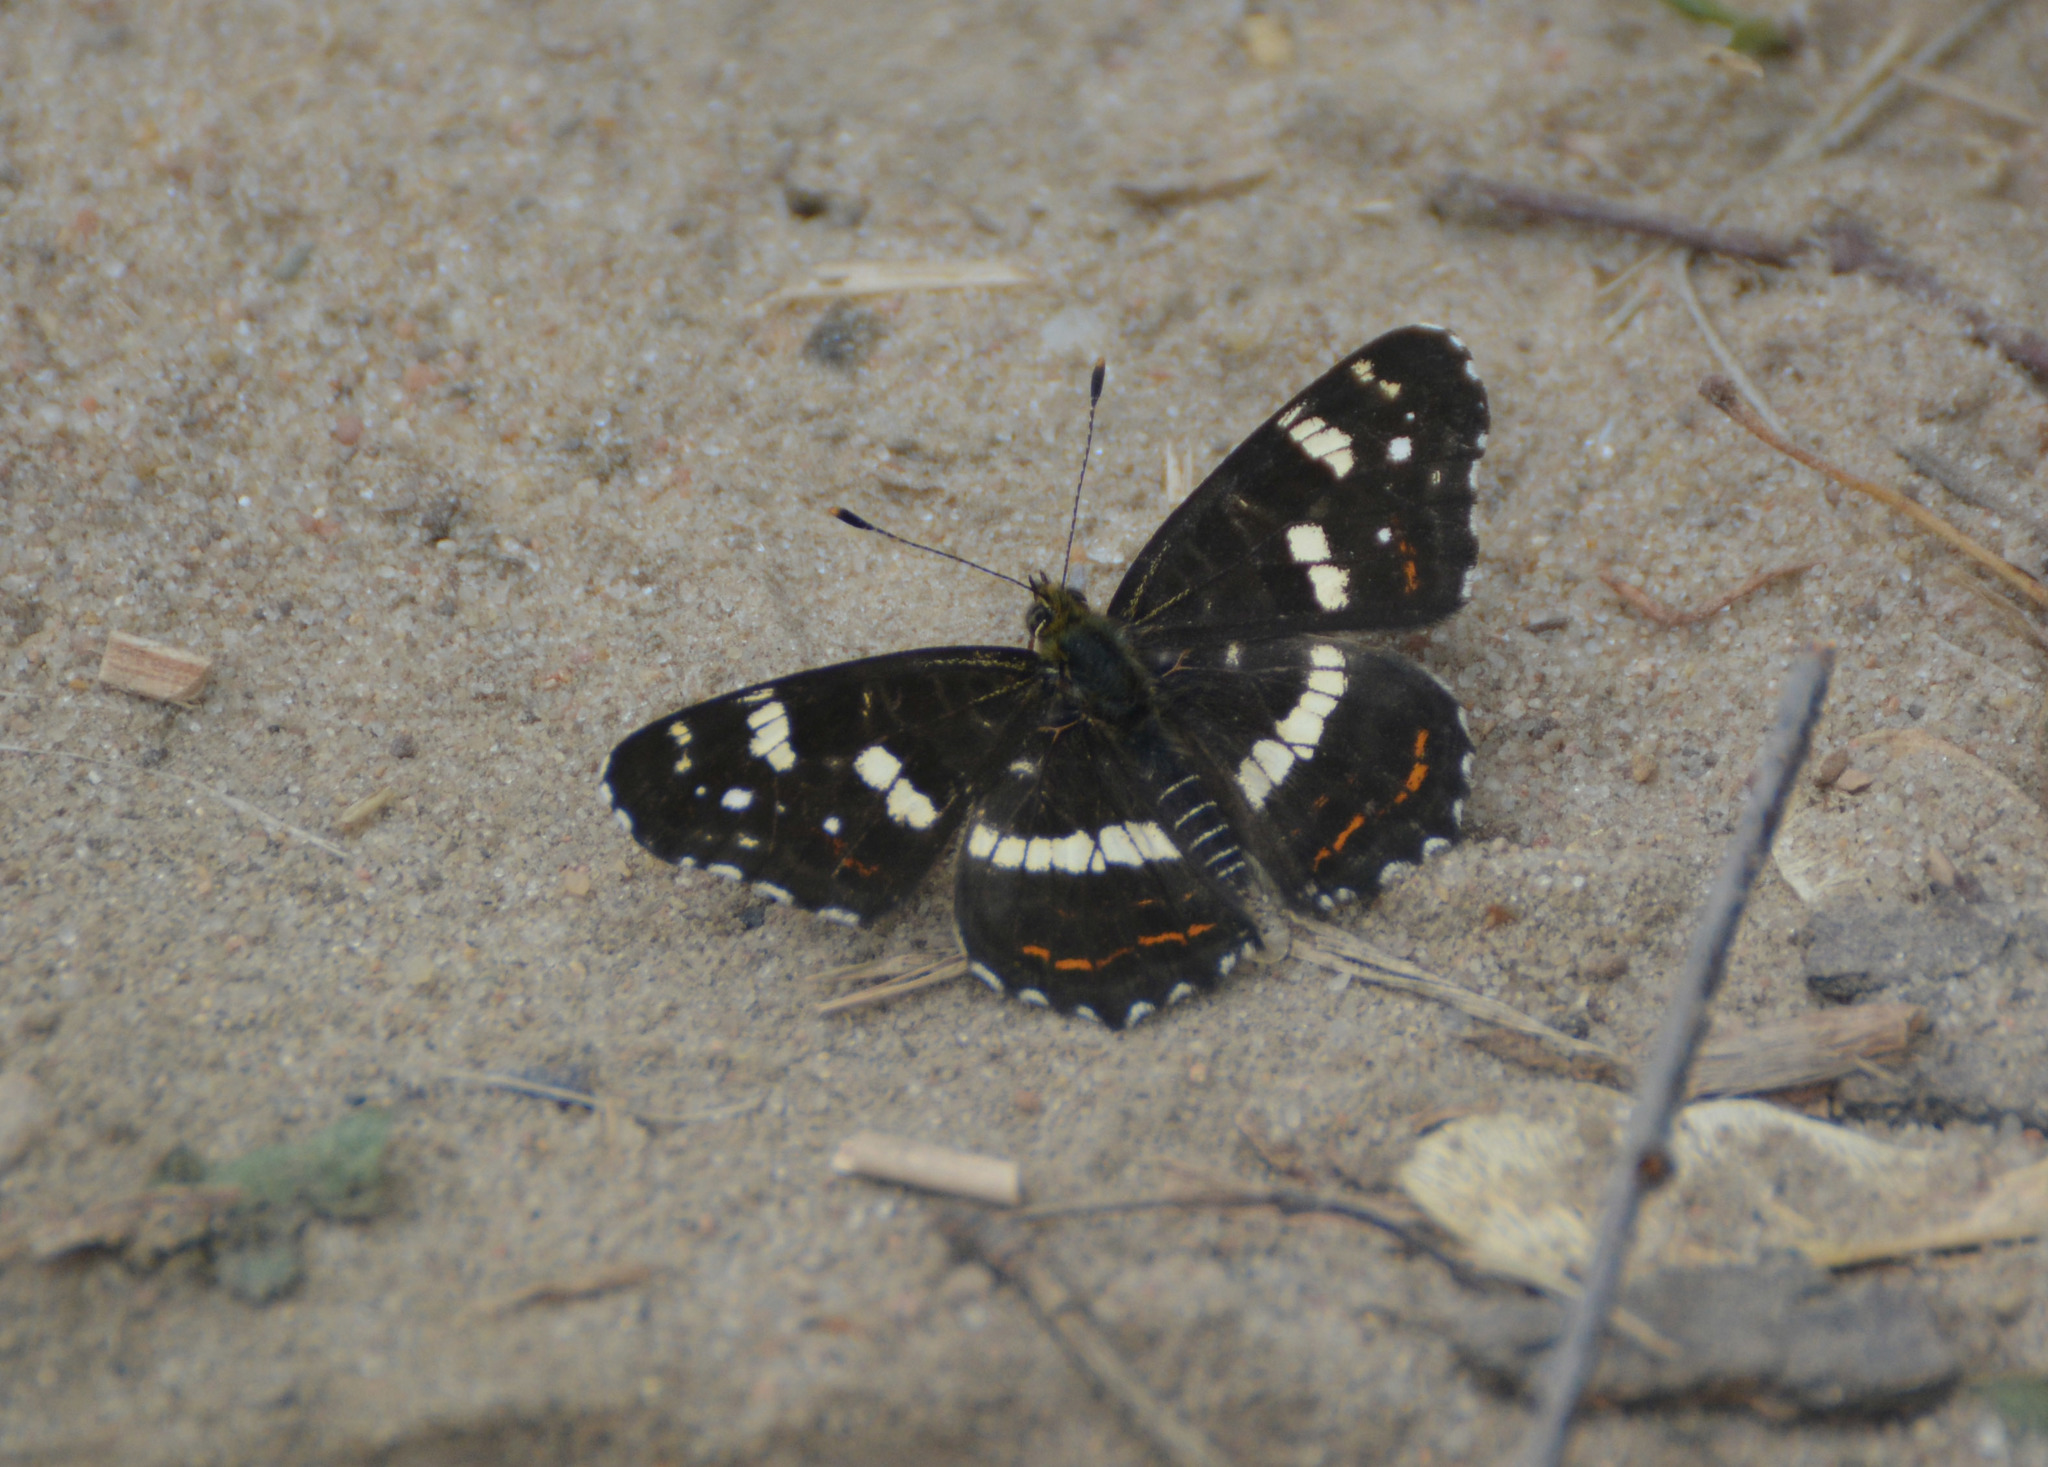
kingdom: Animalia
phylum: Arthropoda
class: Insecta
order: Lepidoptera
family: Nymphalidae
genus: Araschnia
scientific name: Araschnia levana
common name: Map butterfly
